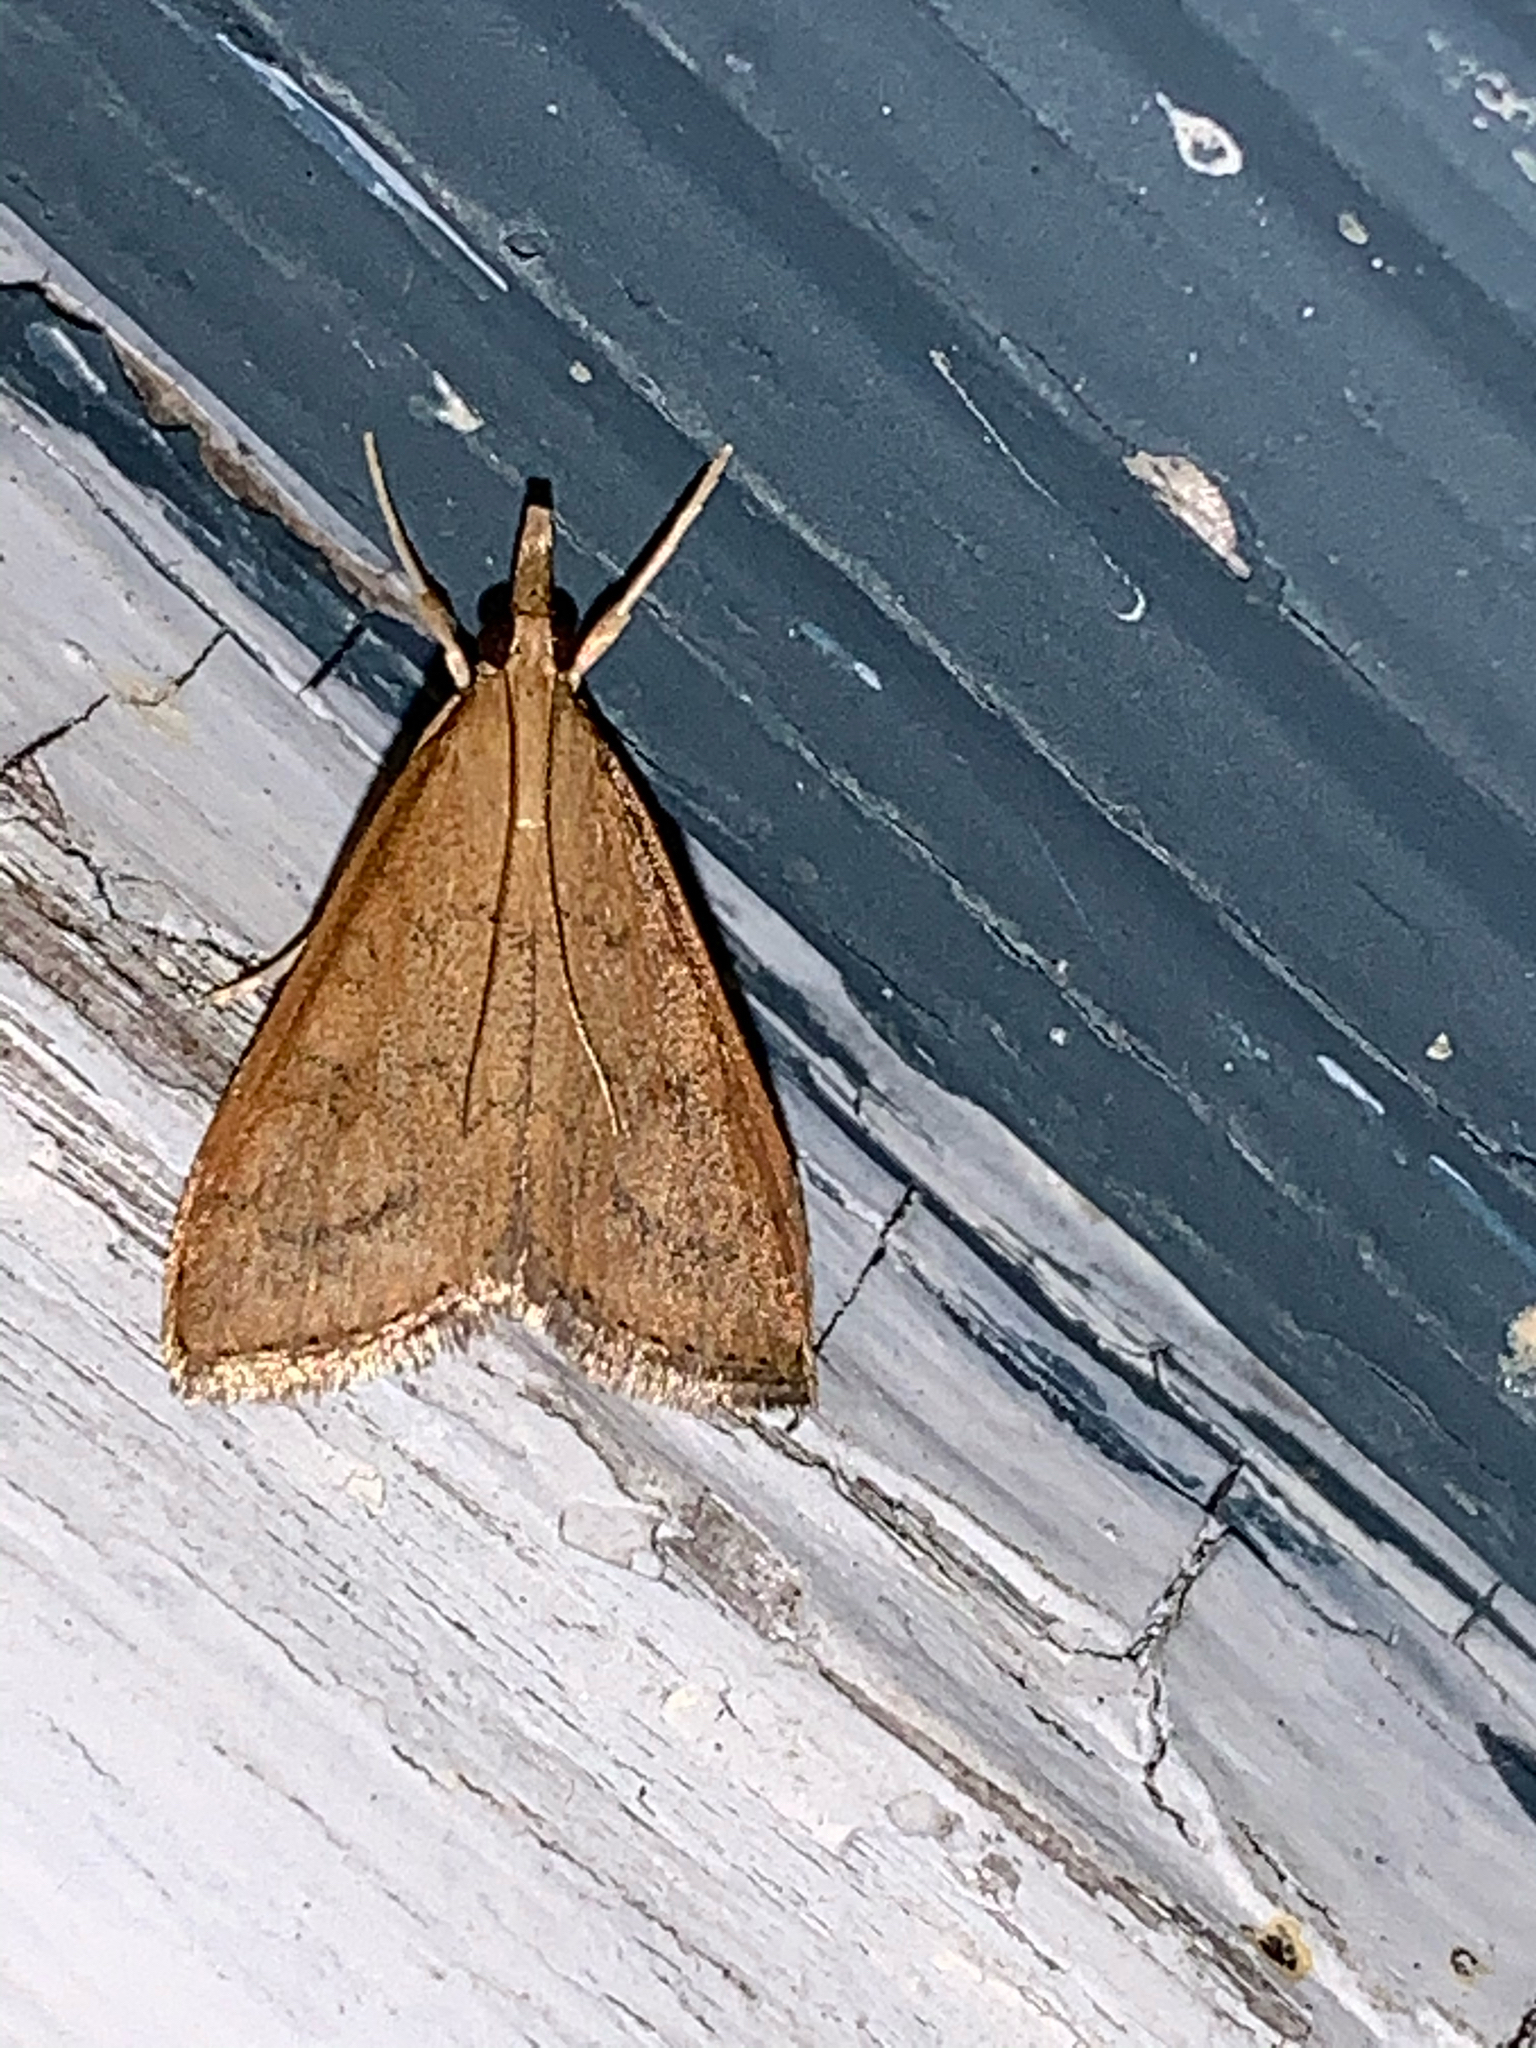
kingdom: Animalia
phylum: Arthropoda
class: Insecta
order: Lepidoptera
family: Crambidae
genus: Udea
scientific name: Udea rubigalis
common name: Celery leaftier moth
